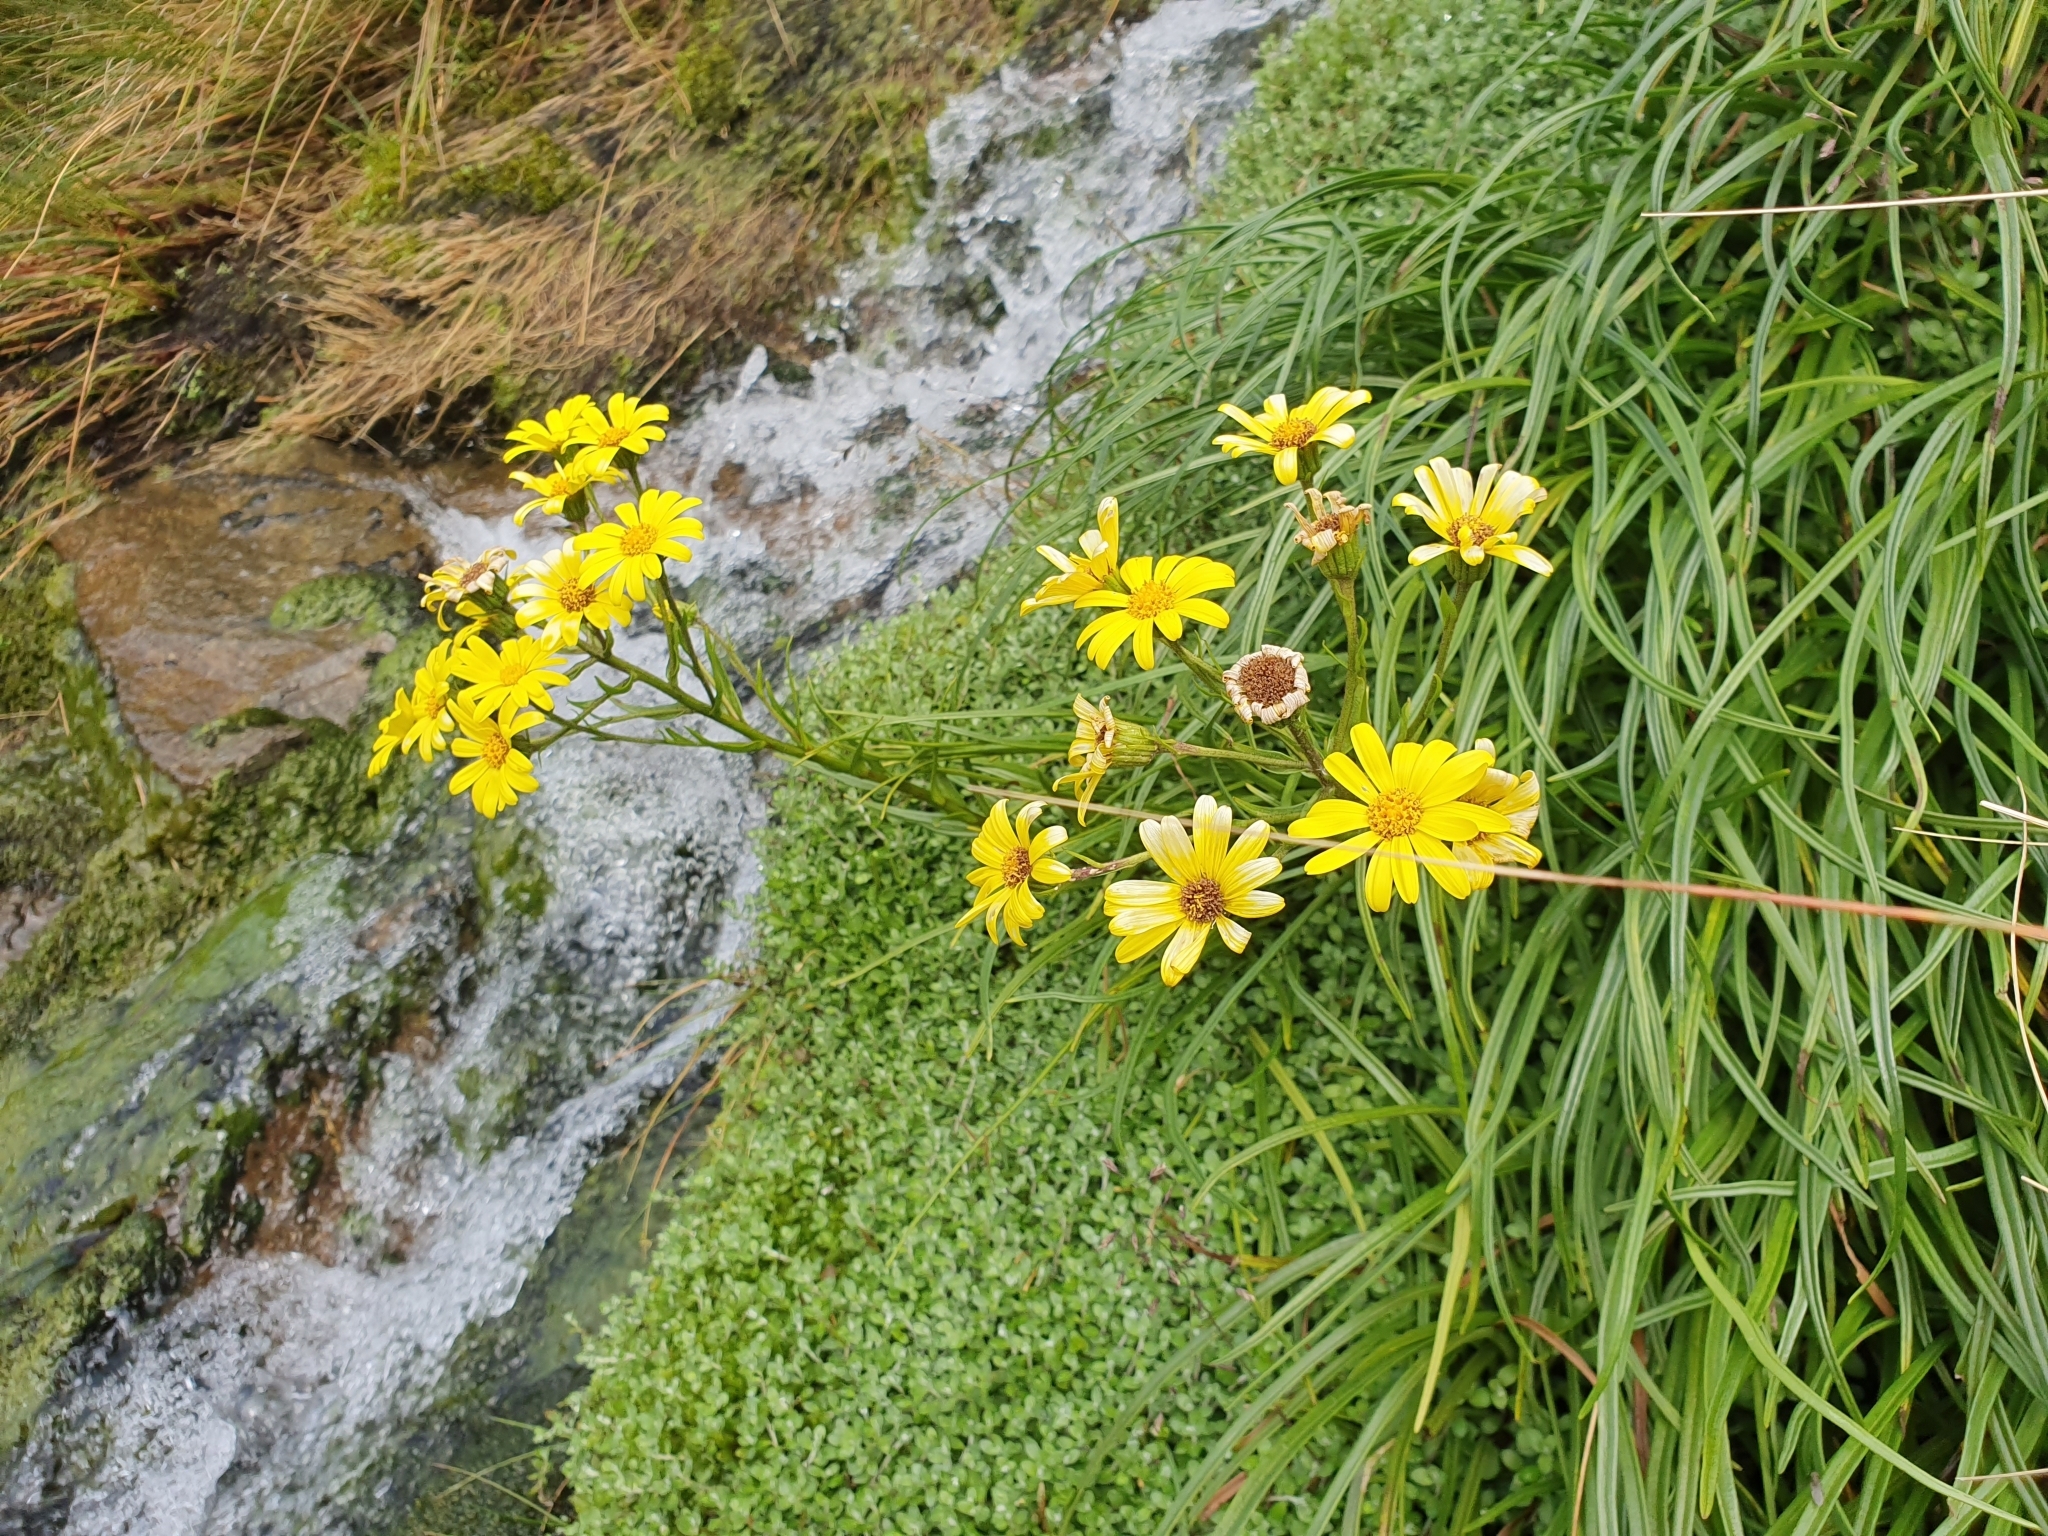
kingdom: Plantae
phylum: Tracheophyta
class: Magnoliopsida
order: Asterales
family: Asteraceae
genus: Dolichoglottis
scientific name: Dolichoglottis lyallii
